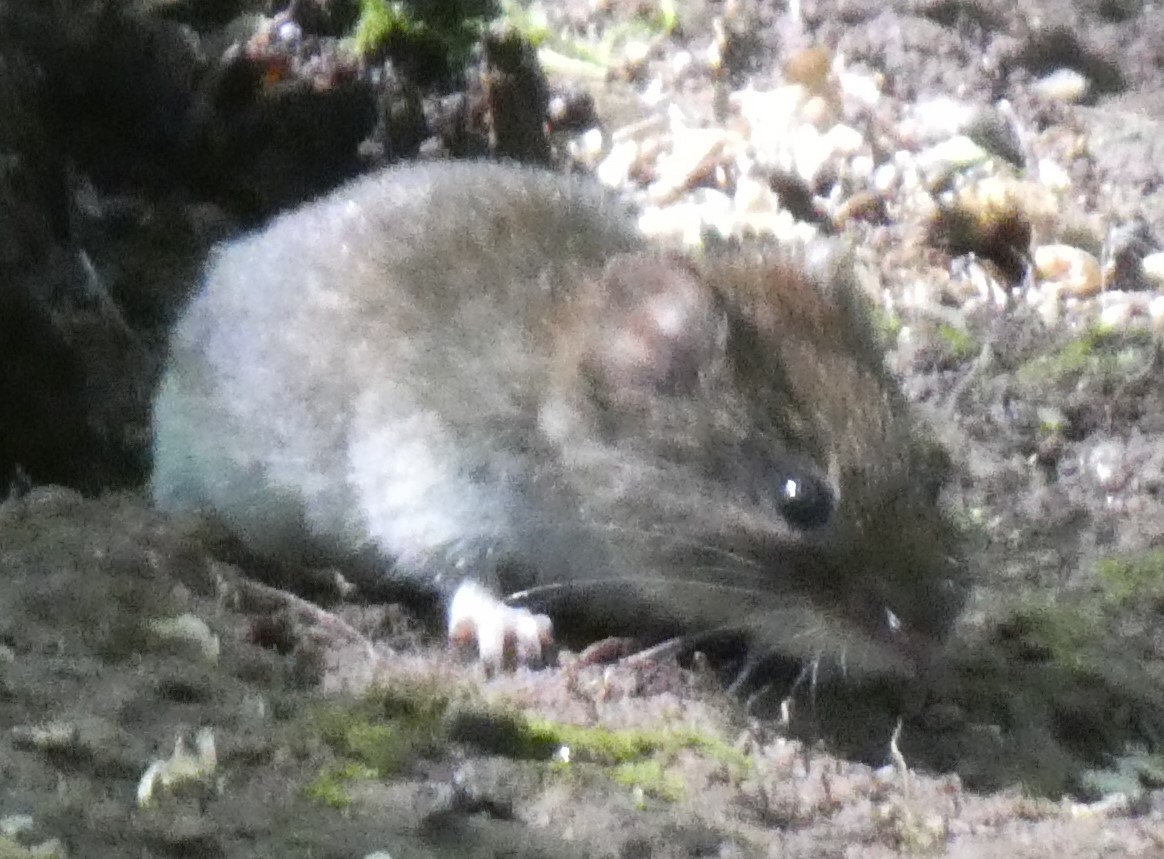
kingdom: Animalia
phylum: Chordata
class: Mammalia
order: Rodentia
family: Cricetidae
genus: Myodes
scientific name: Myodes glareolus
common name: Bank vole
